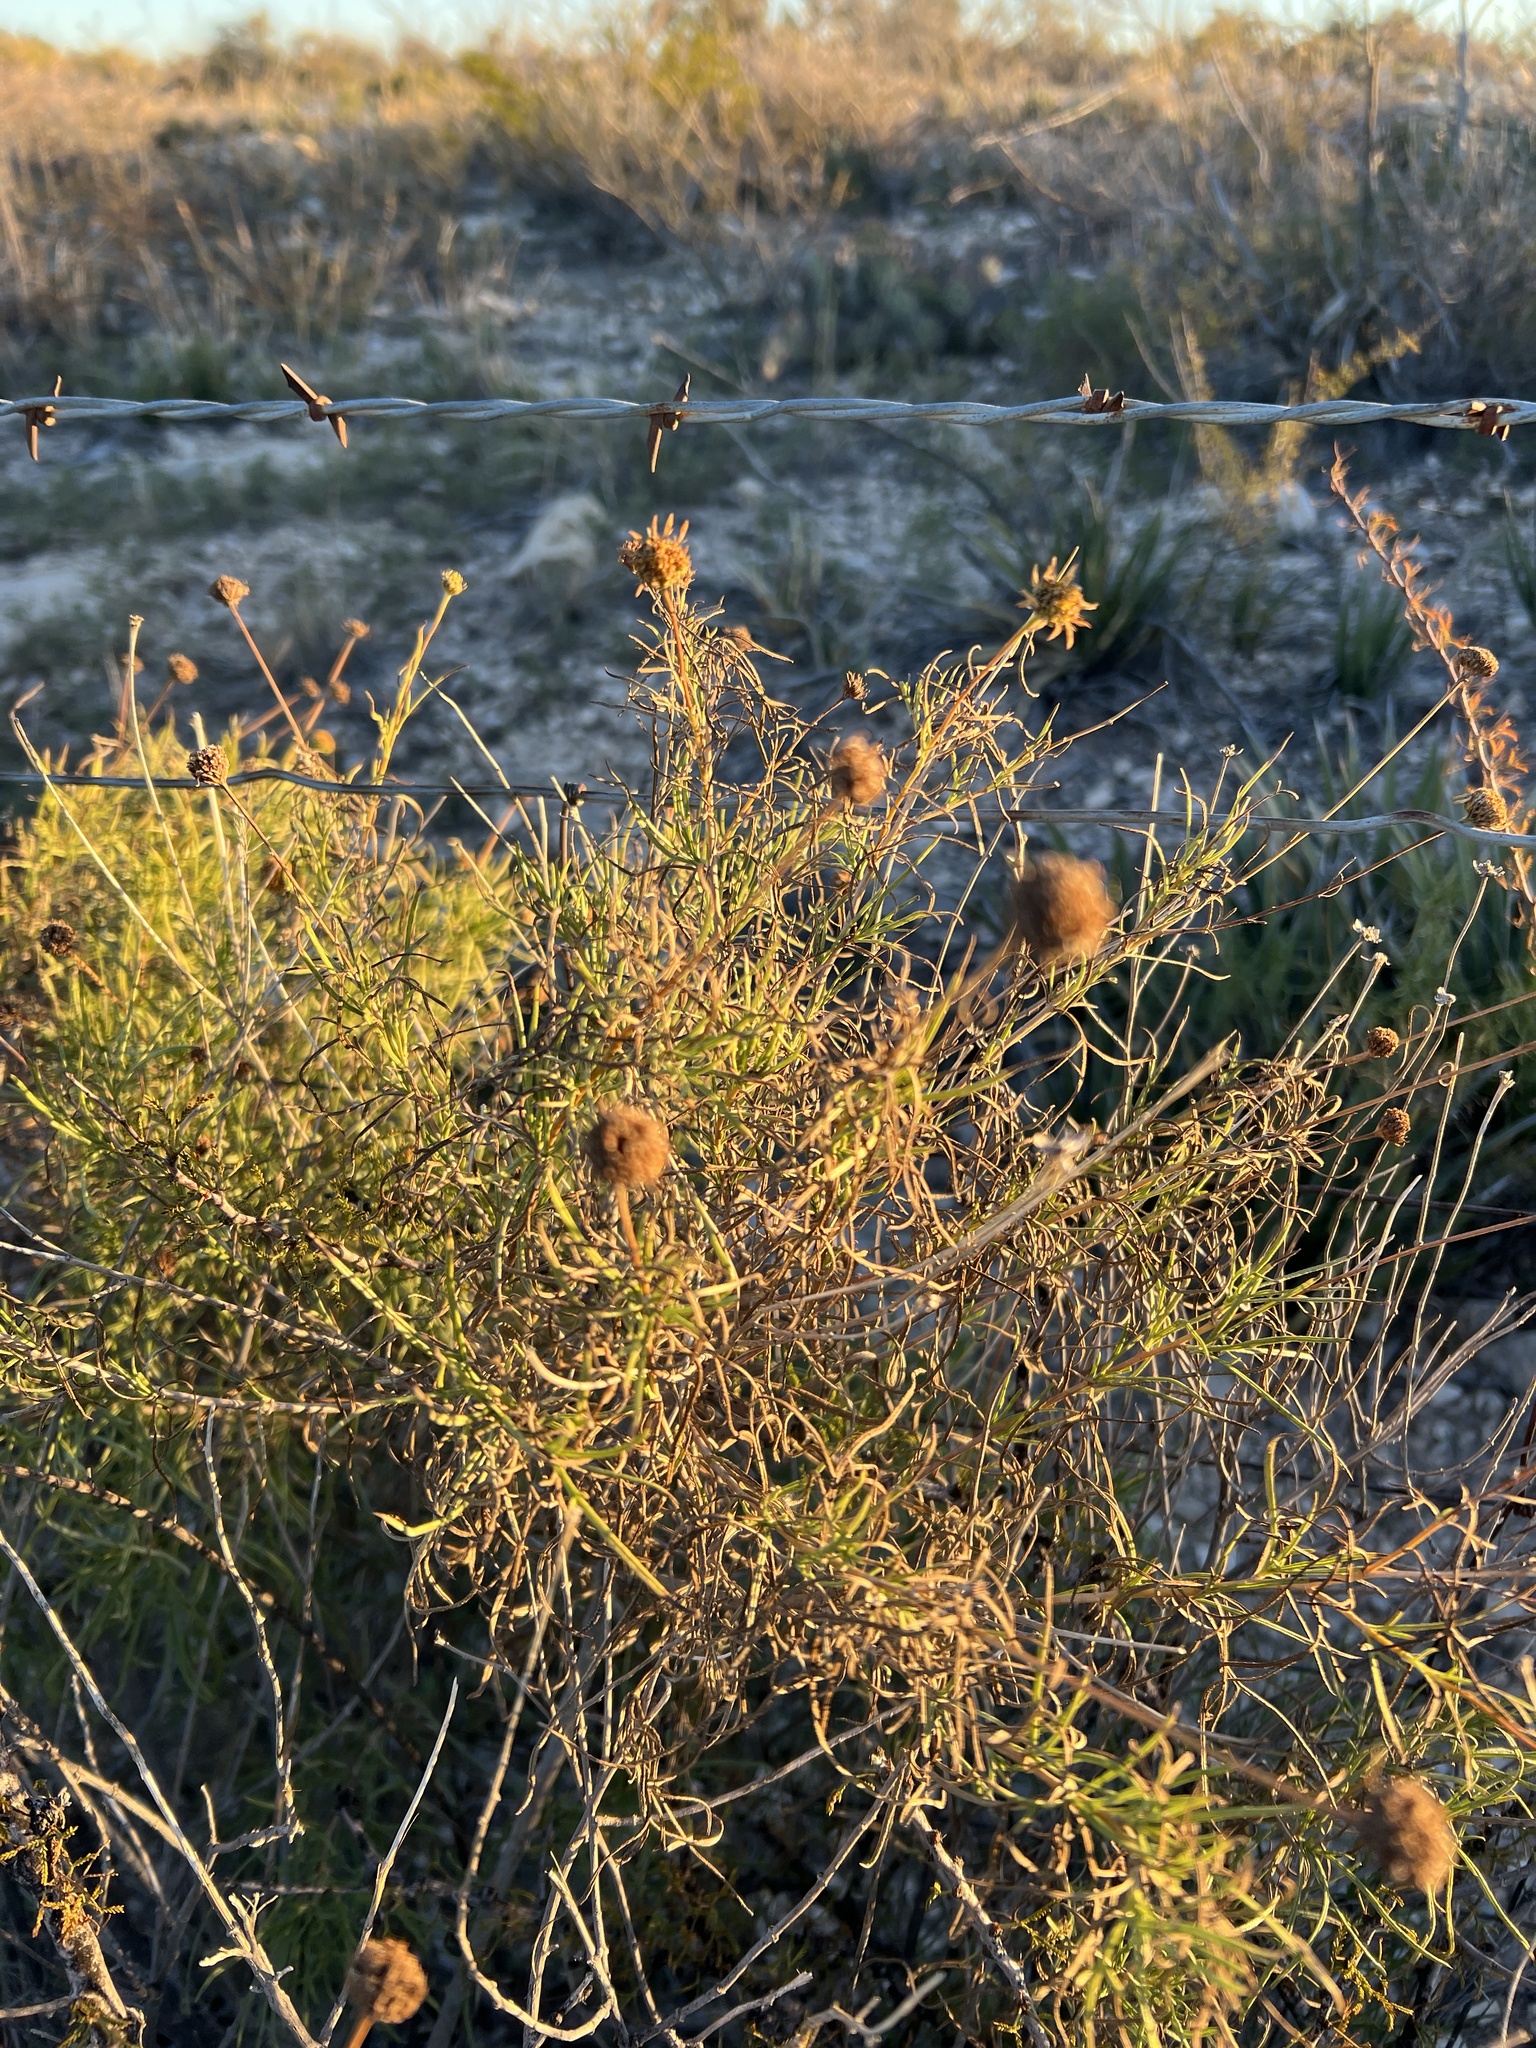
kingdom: Plantae
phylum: Tracheophyta
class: Magnoliopsida
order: Asterales
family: Asteraceae
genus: Sidneya
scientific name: Sidneya tenuifolia
